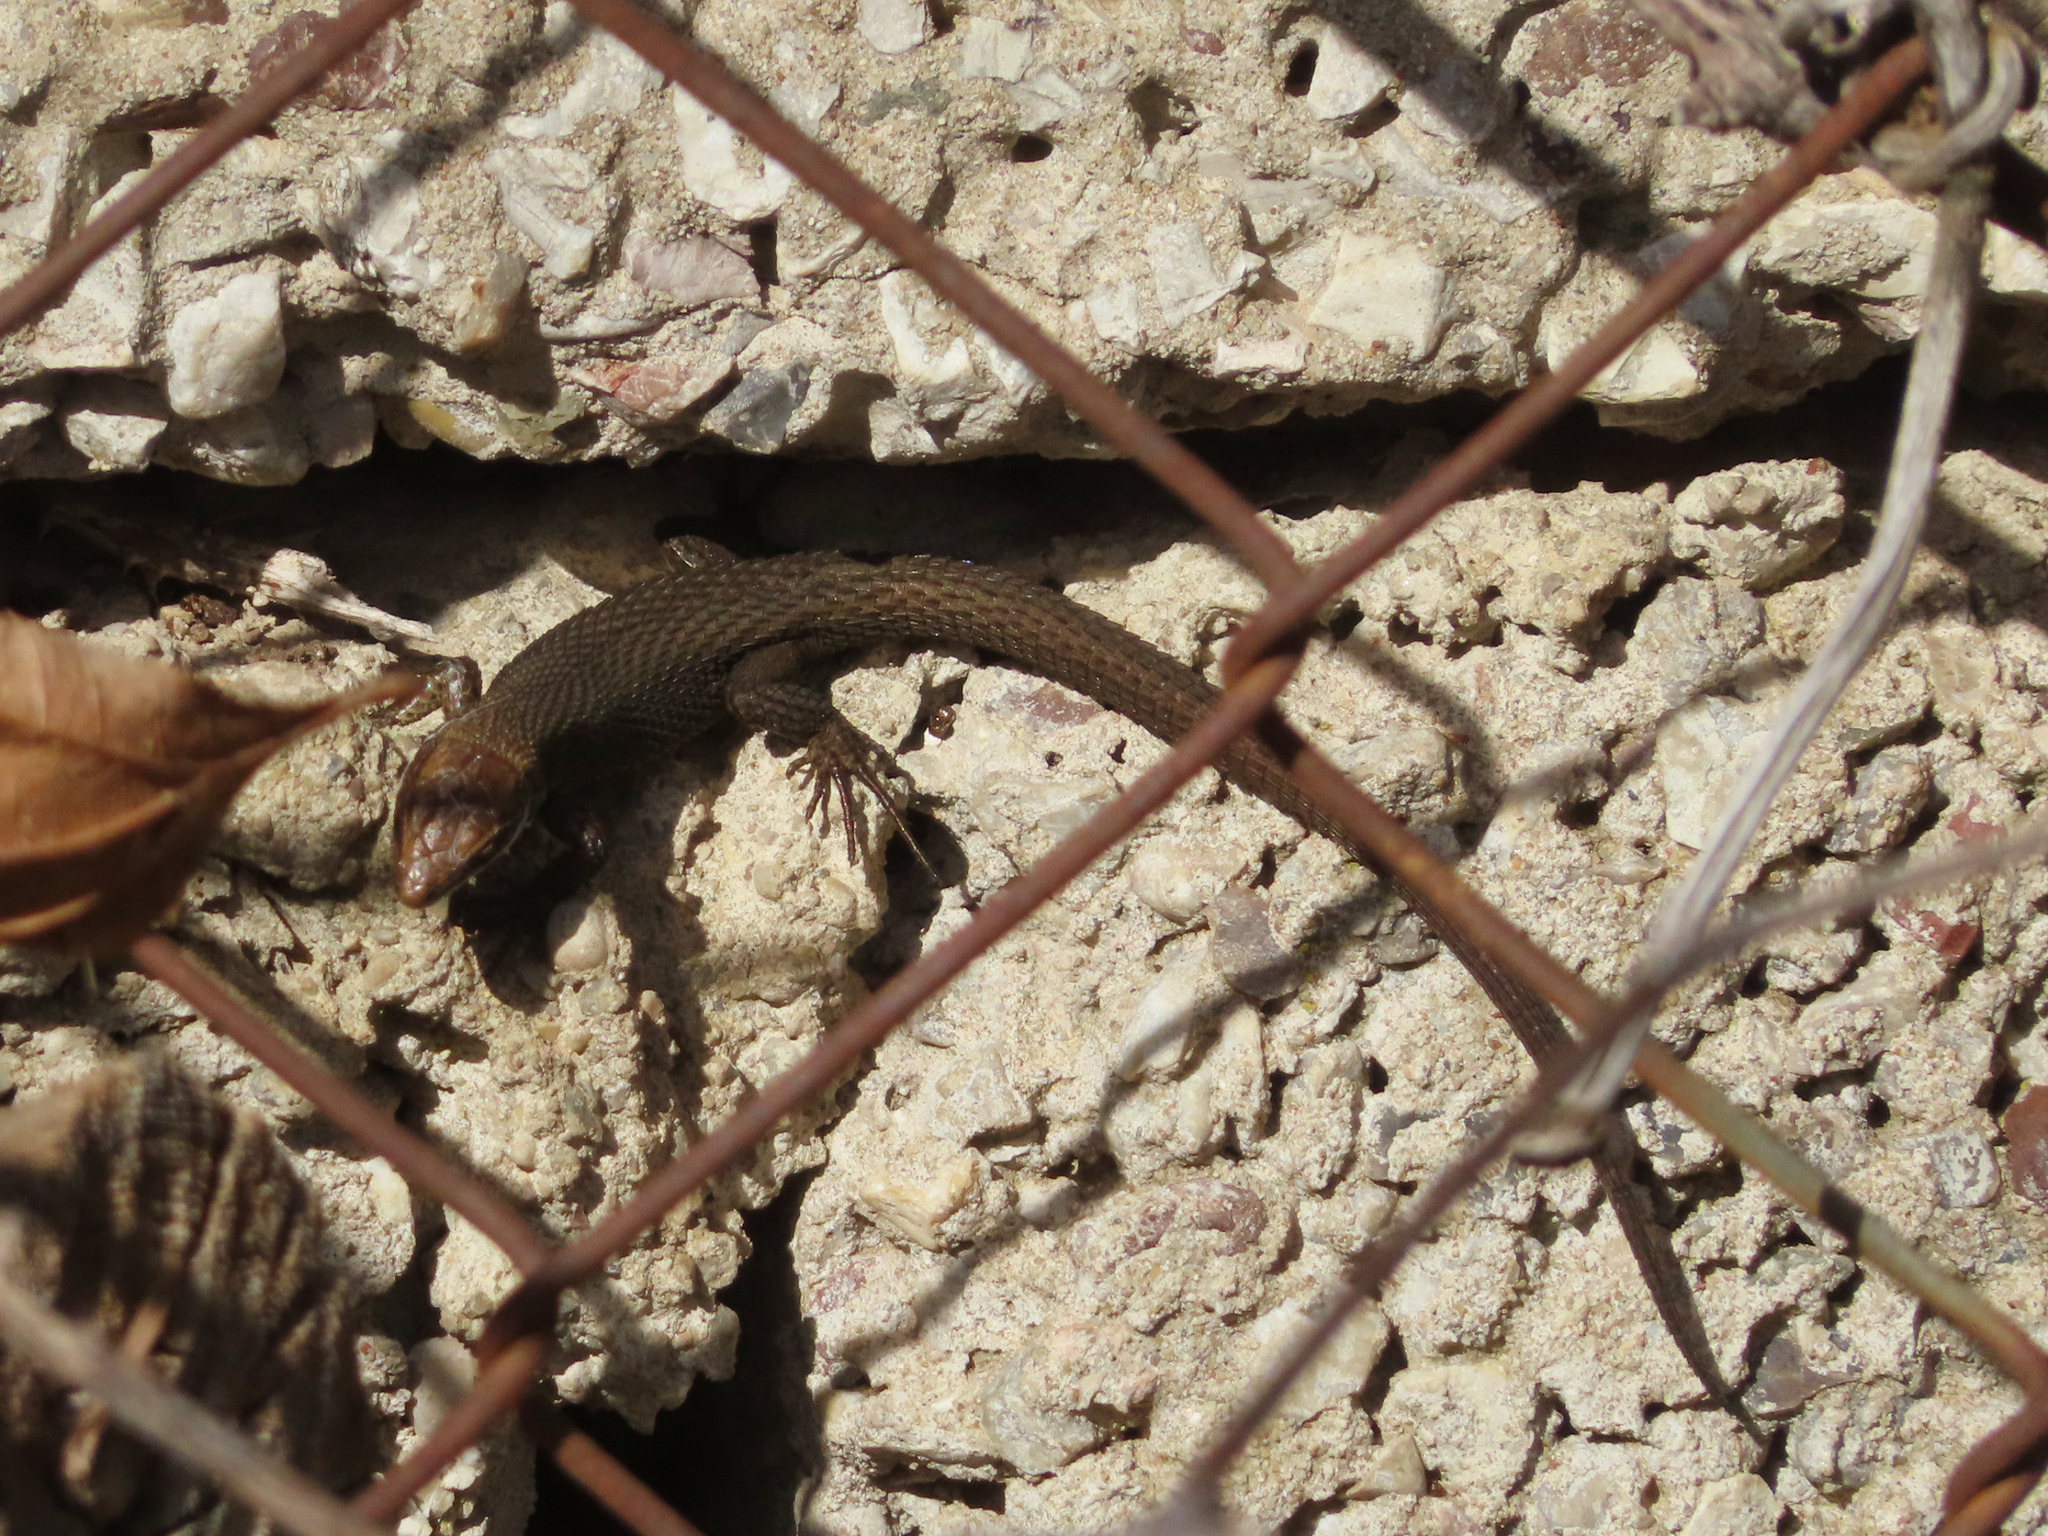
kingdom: Animalia
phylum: Chordata
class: Squamata
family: Lacertidae
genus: Algyroides
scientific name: Algyroides moreoticus
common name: Greek algyroides
